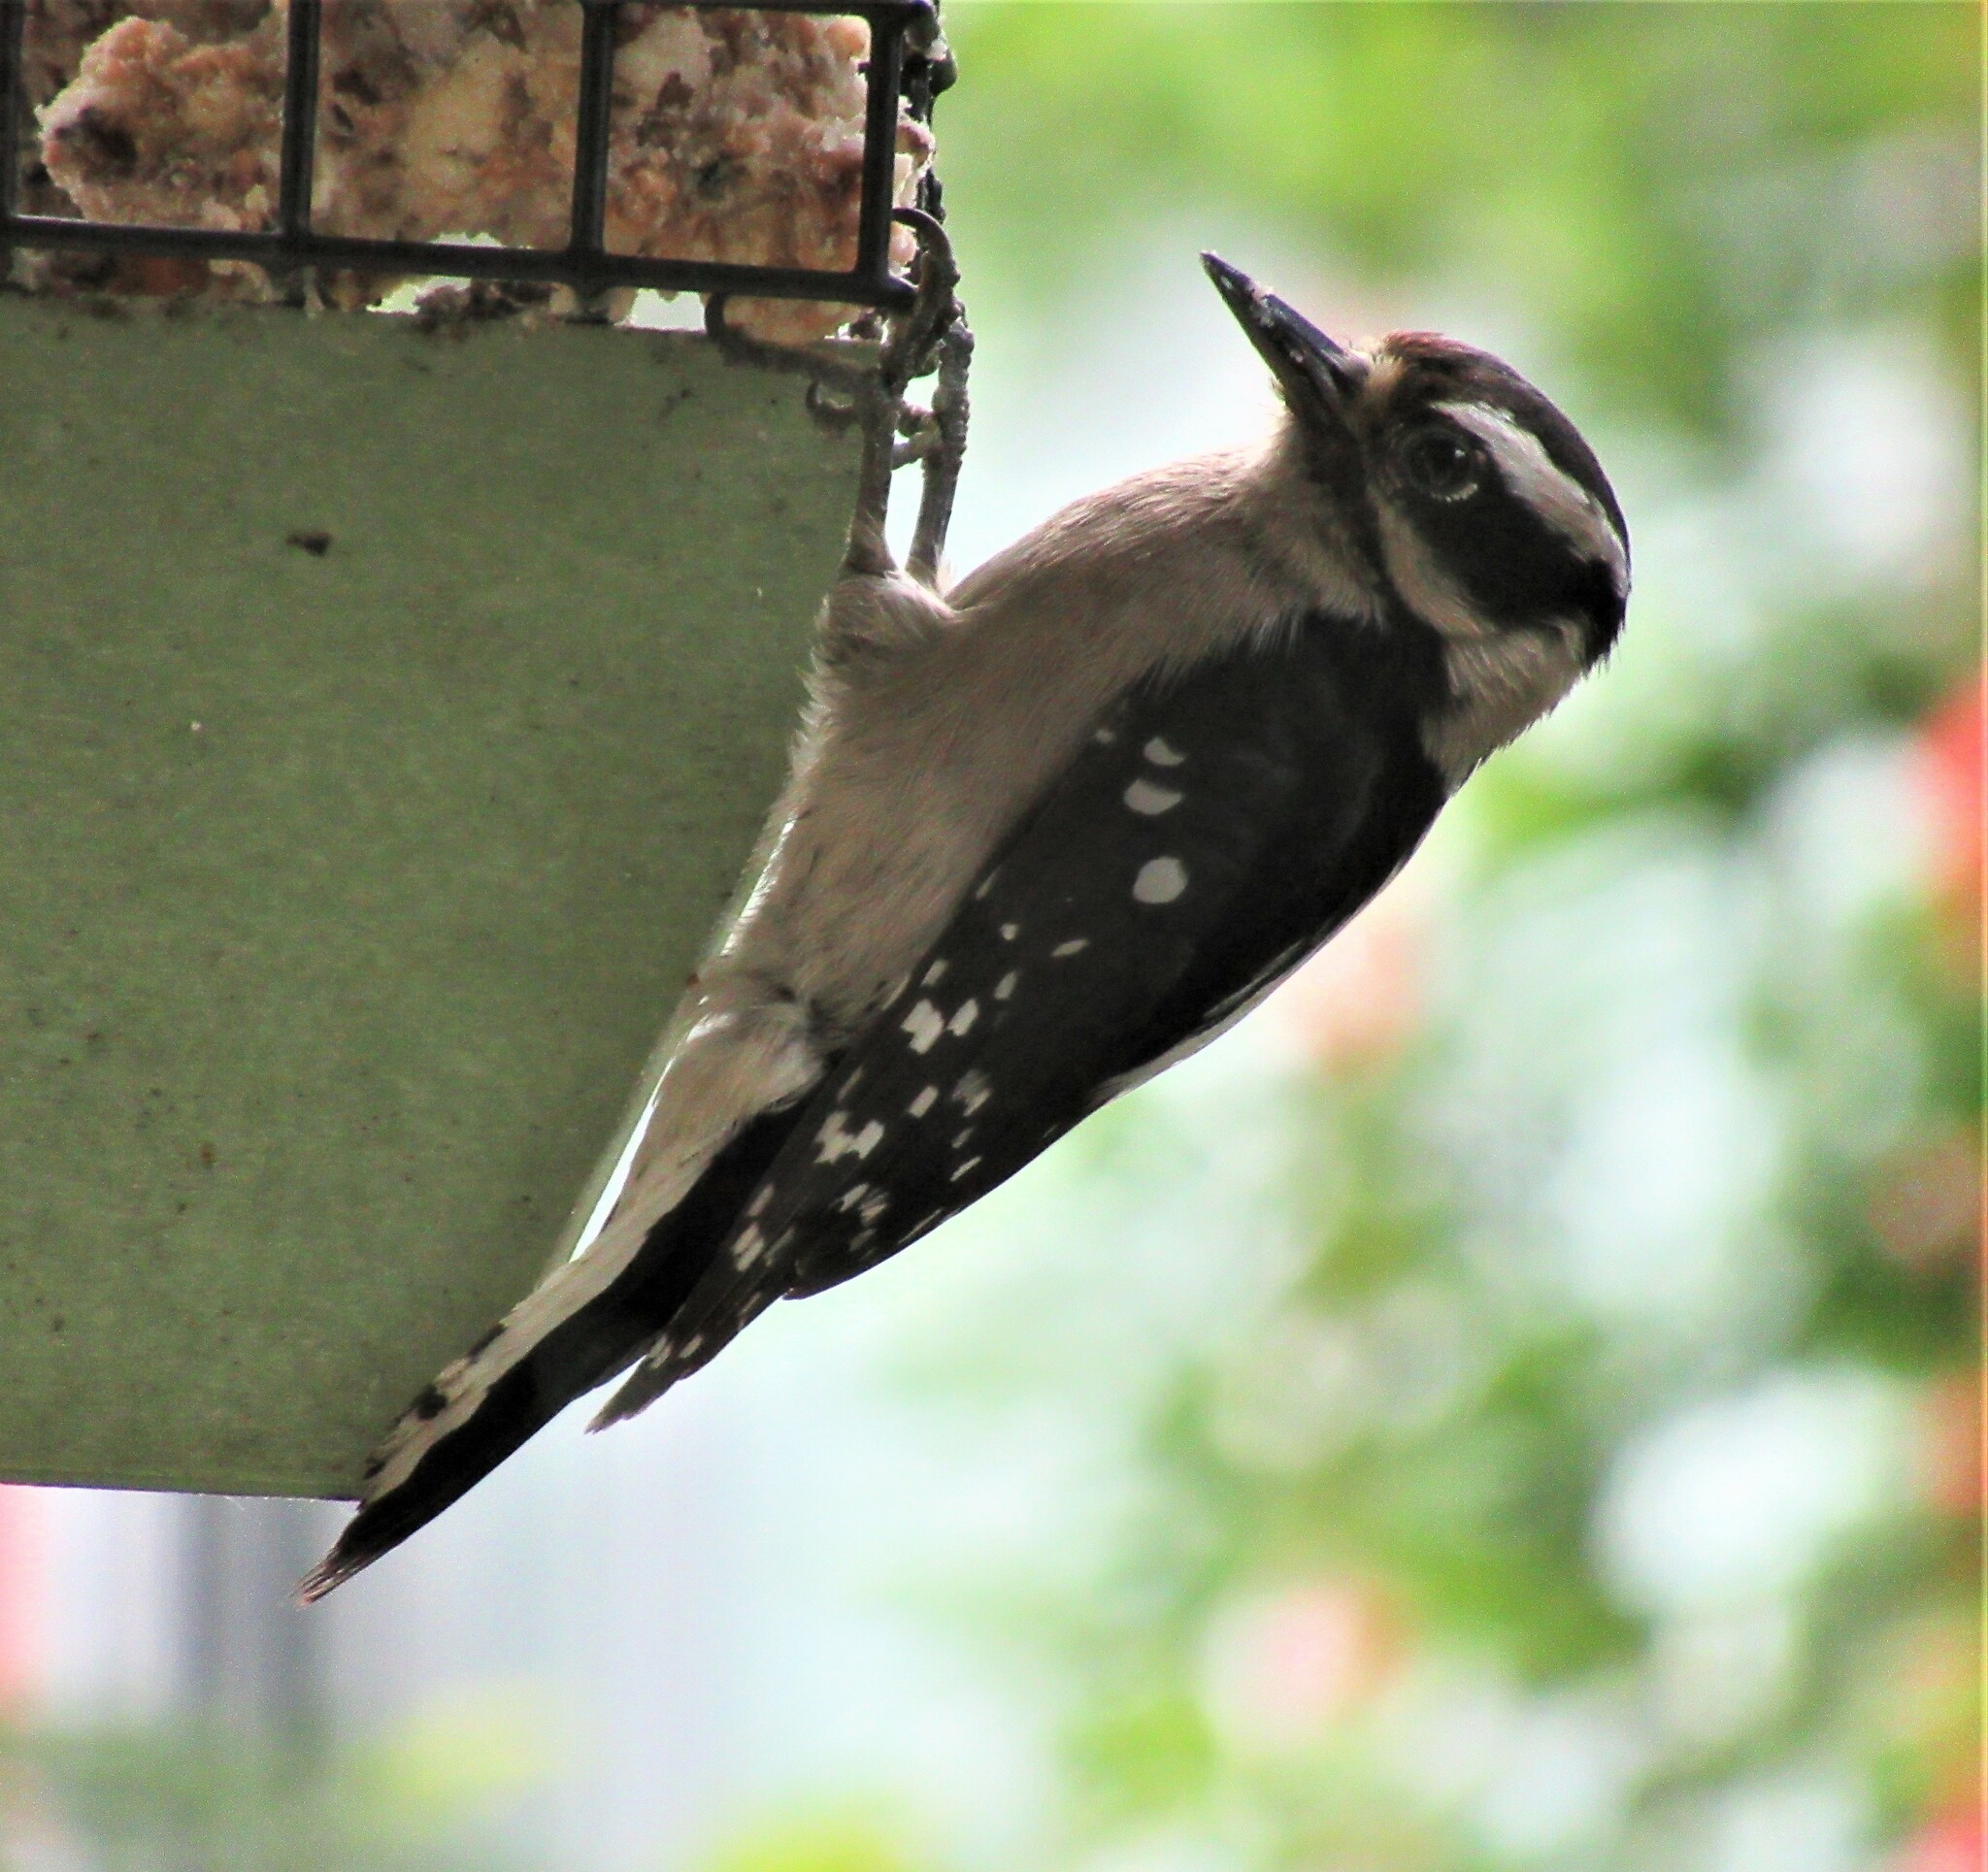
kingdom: Animalia
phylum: Chordata
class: Aves
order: Piciformes
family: Picidae
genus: Dryobates
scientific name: Dryobates pubescens
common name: Downy woodpecker
